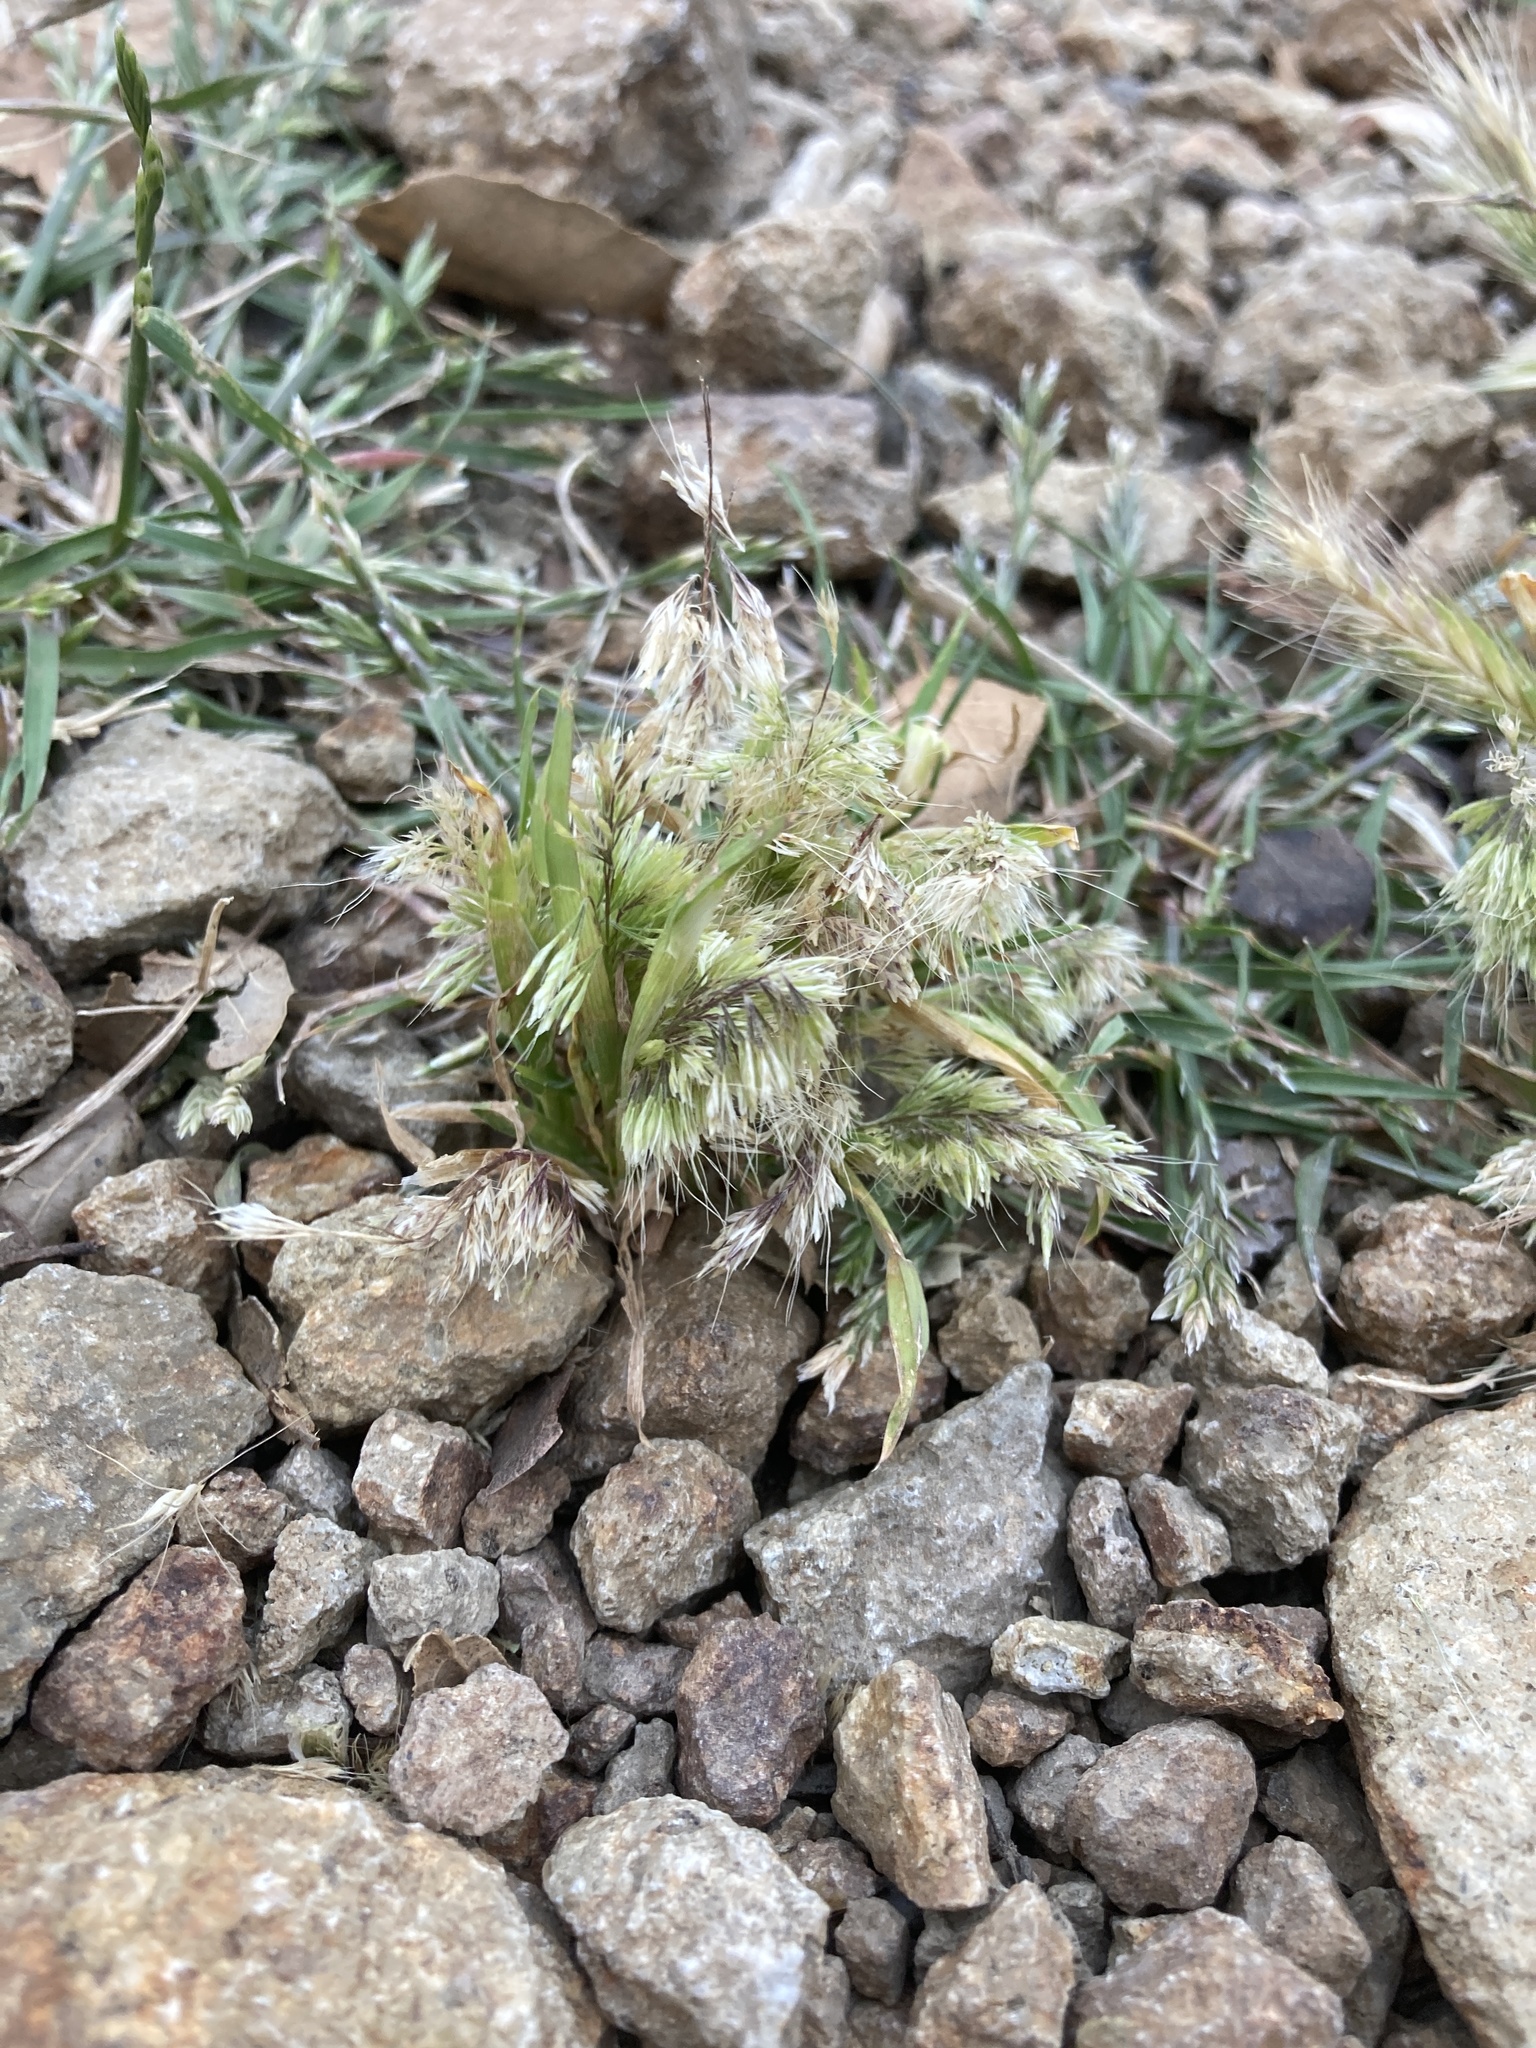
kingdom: Plantae
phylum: Tracheophyta
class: Liliopsida
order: Poales
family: Poaceae
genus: Lamarckia
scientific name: Lamarckia aurea
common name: Golden dog's-tail
